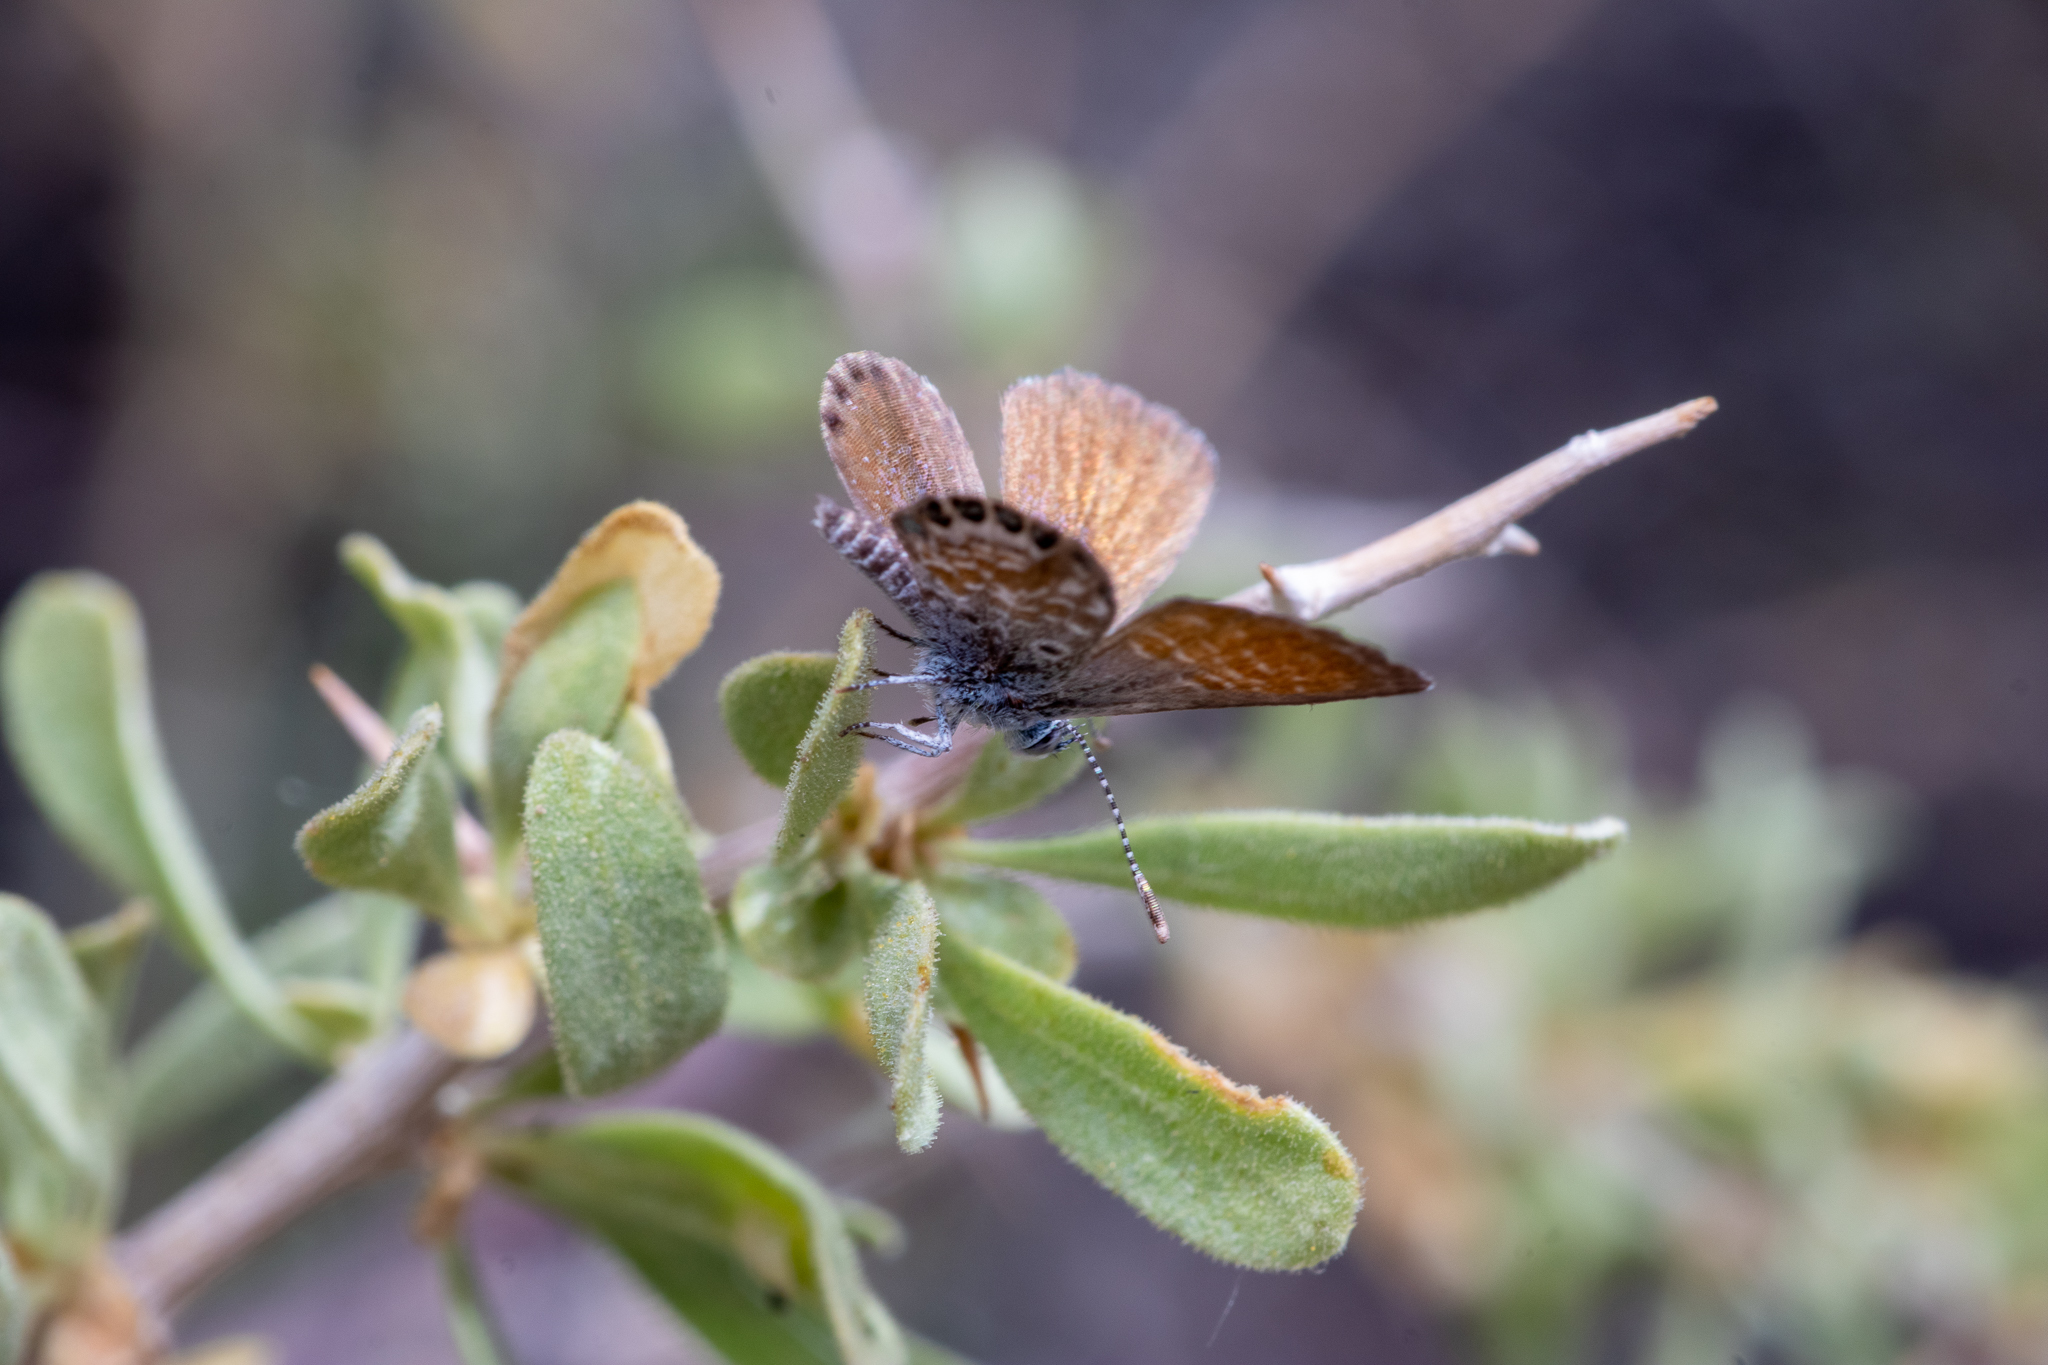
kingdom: Animalia
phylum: Arthropoda
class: Insecta
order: Lepidoptera
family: Lycaenidae
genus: Brephidium
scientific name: Brephidium exilis
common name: Pygmy blue
